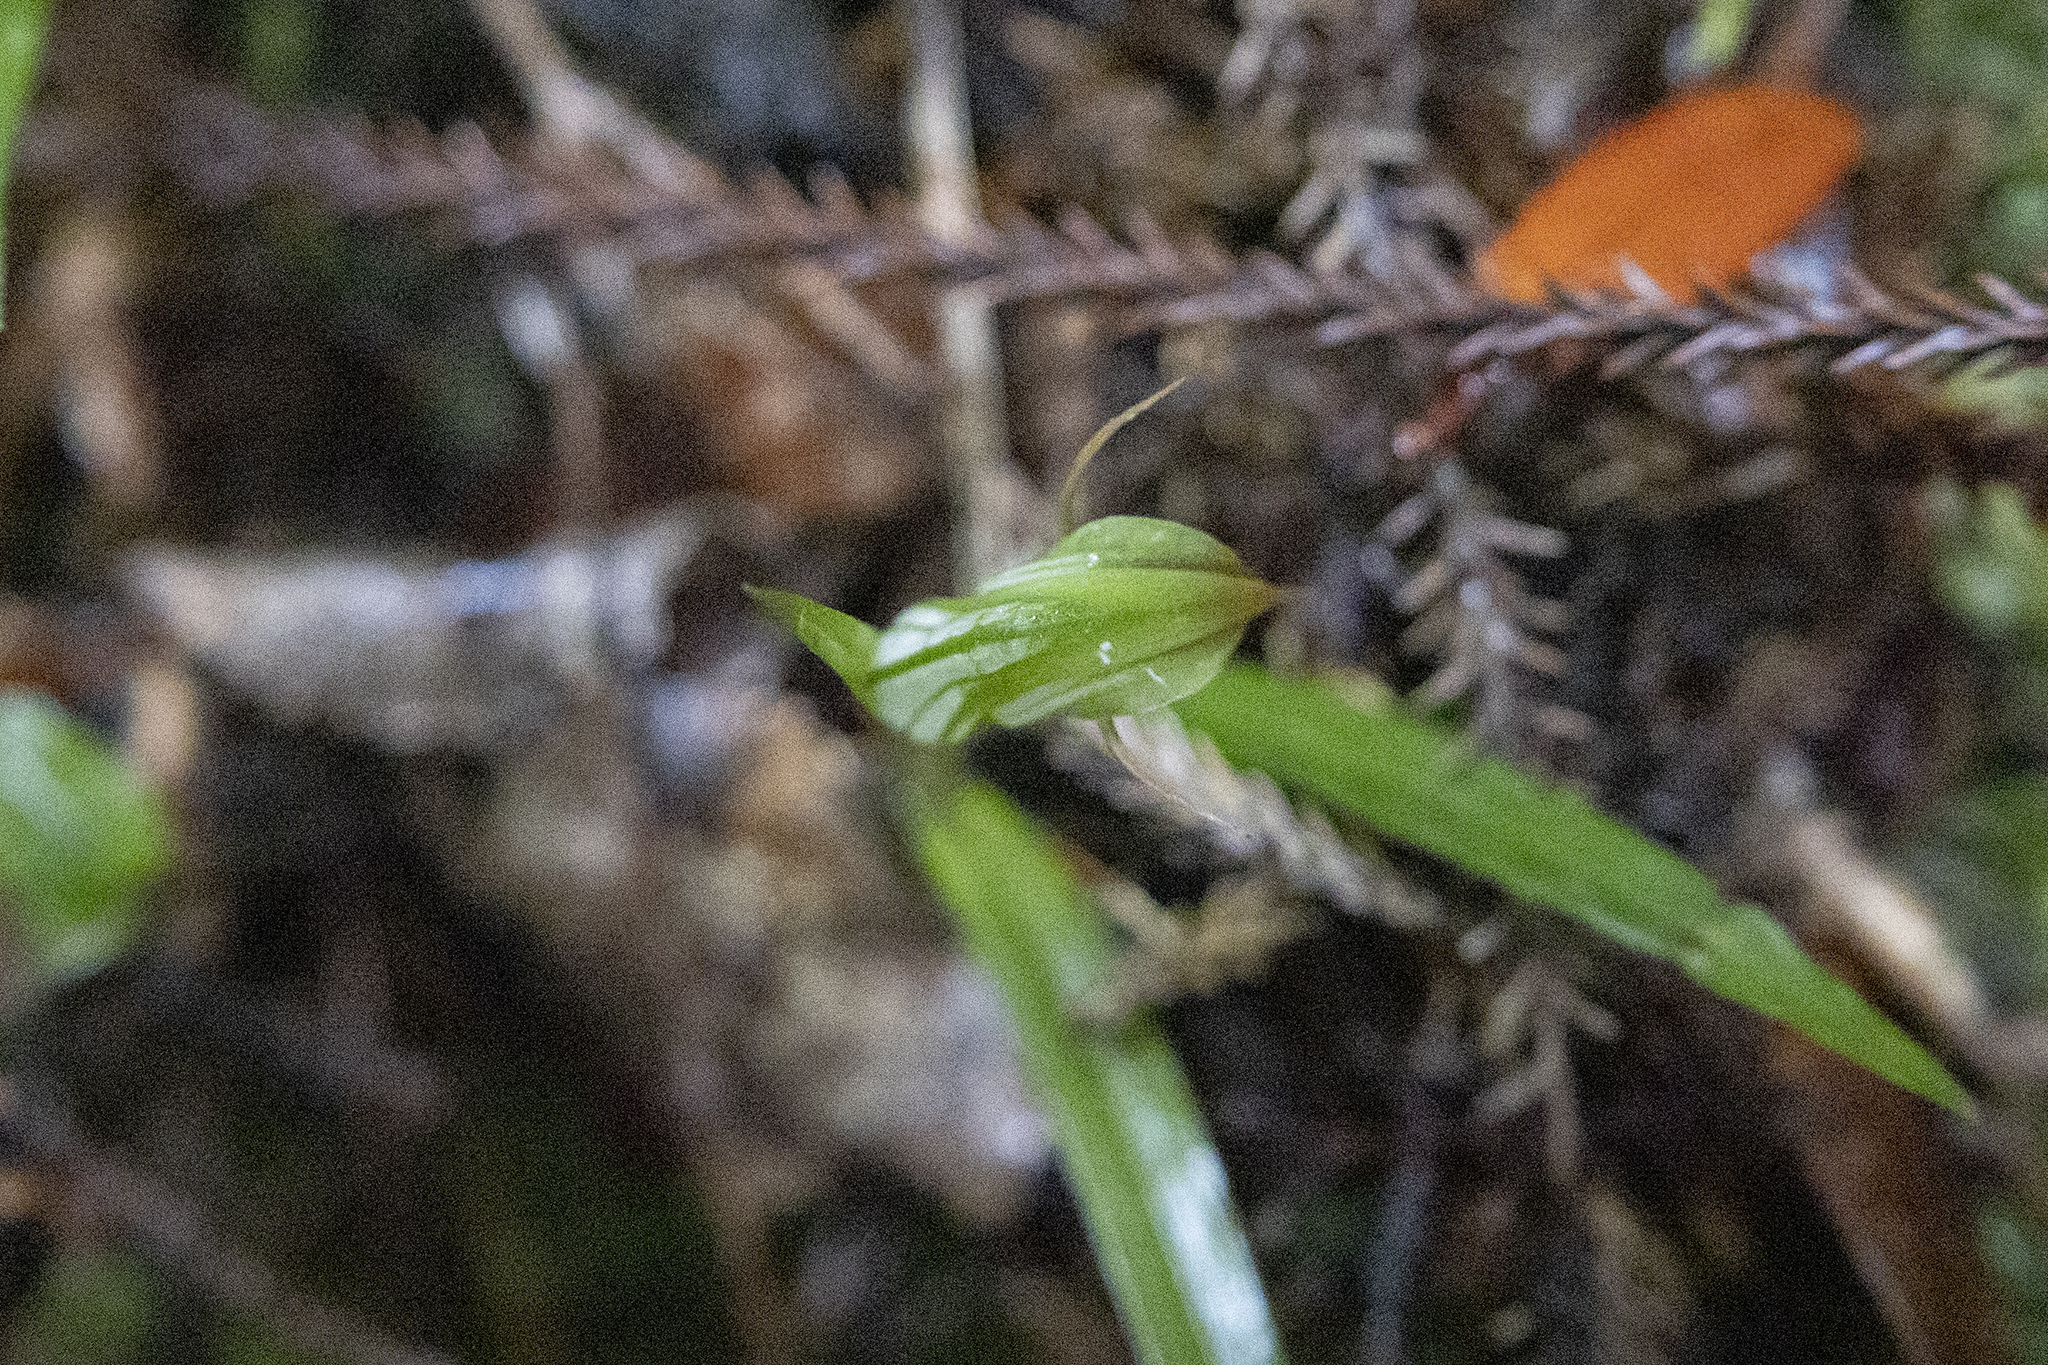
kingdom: Plantae
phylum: Tracheophyta
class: Liliopsida
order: Asparagales
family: Orchidaceae
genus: Pterostylis
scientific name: Pterostylis montana
